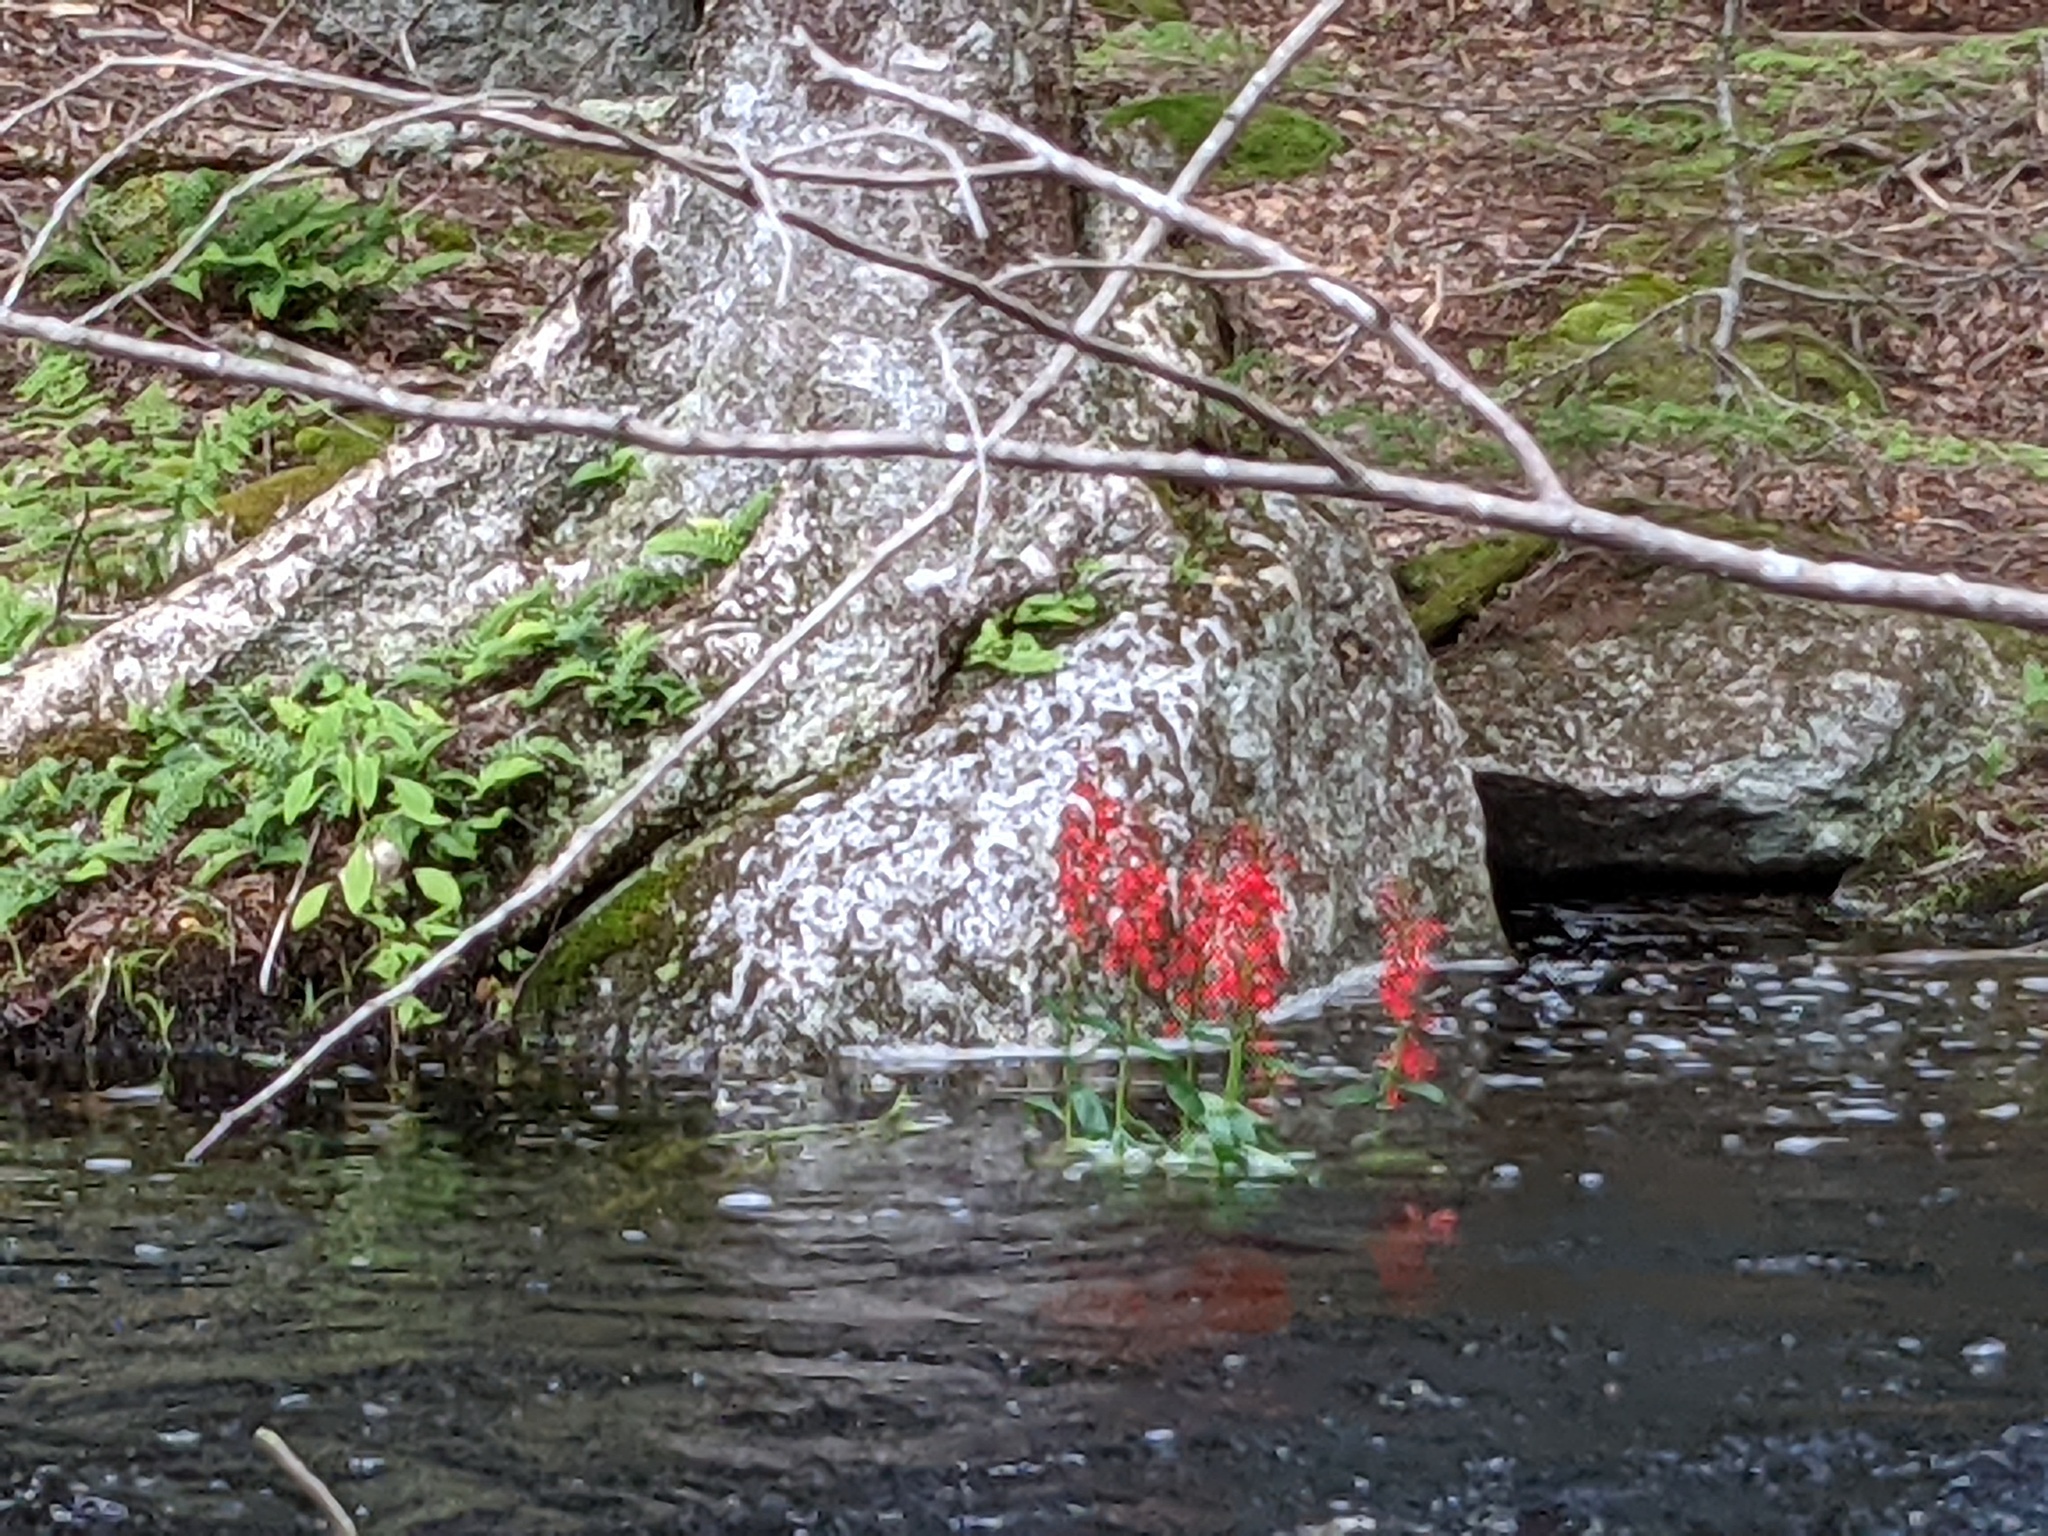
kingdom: Plantae
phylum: Tracheophyta
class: Magnoliopsida
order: Asterales
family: Campanulaceae
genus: Lobelia
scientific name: Lobelia cardinalis
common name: Cardinal flower
